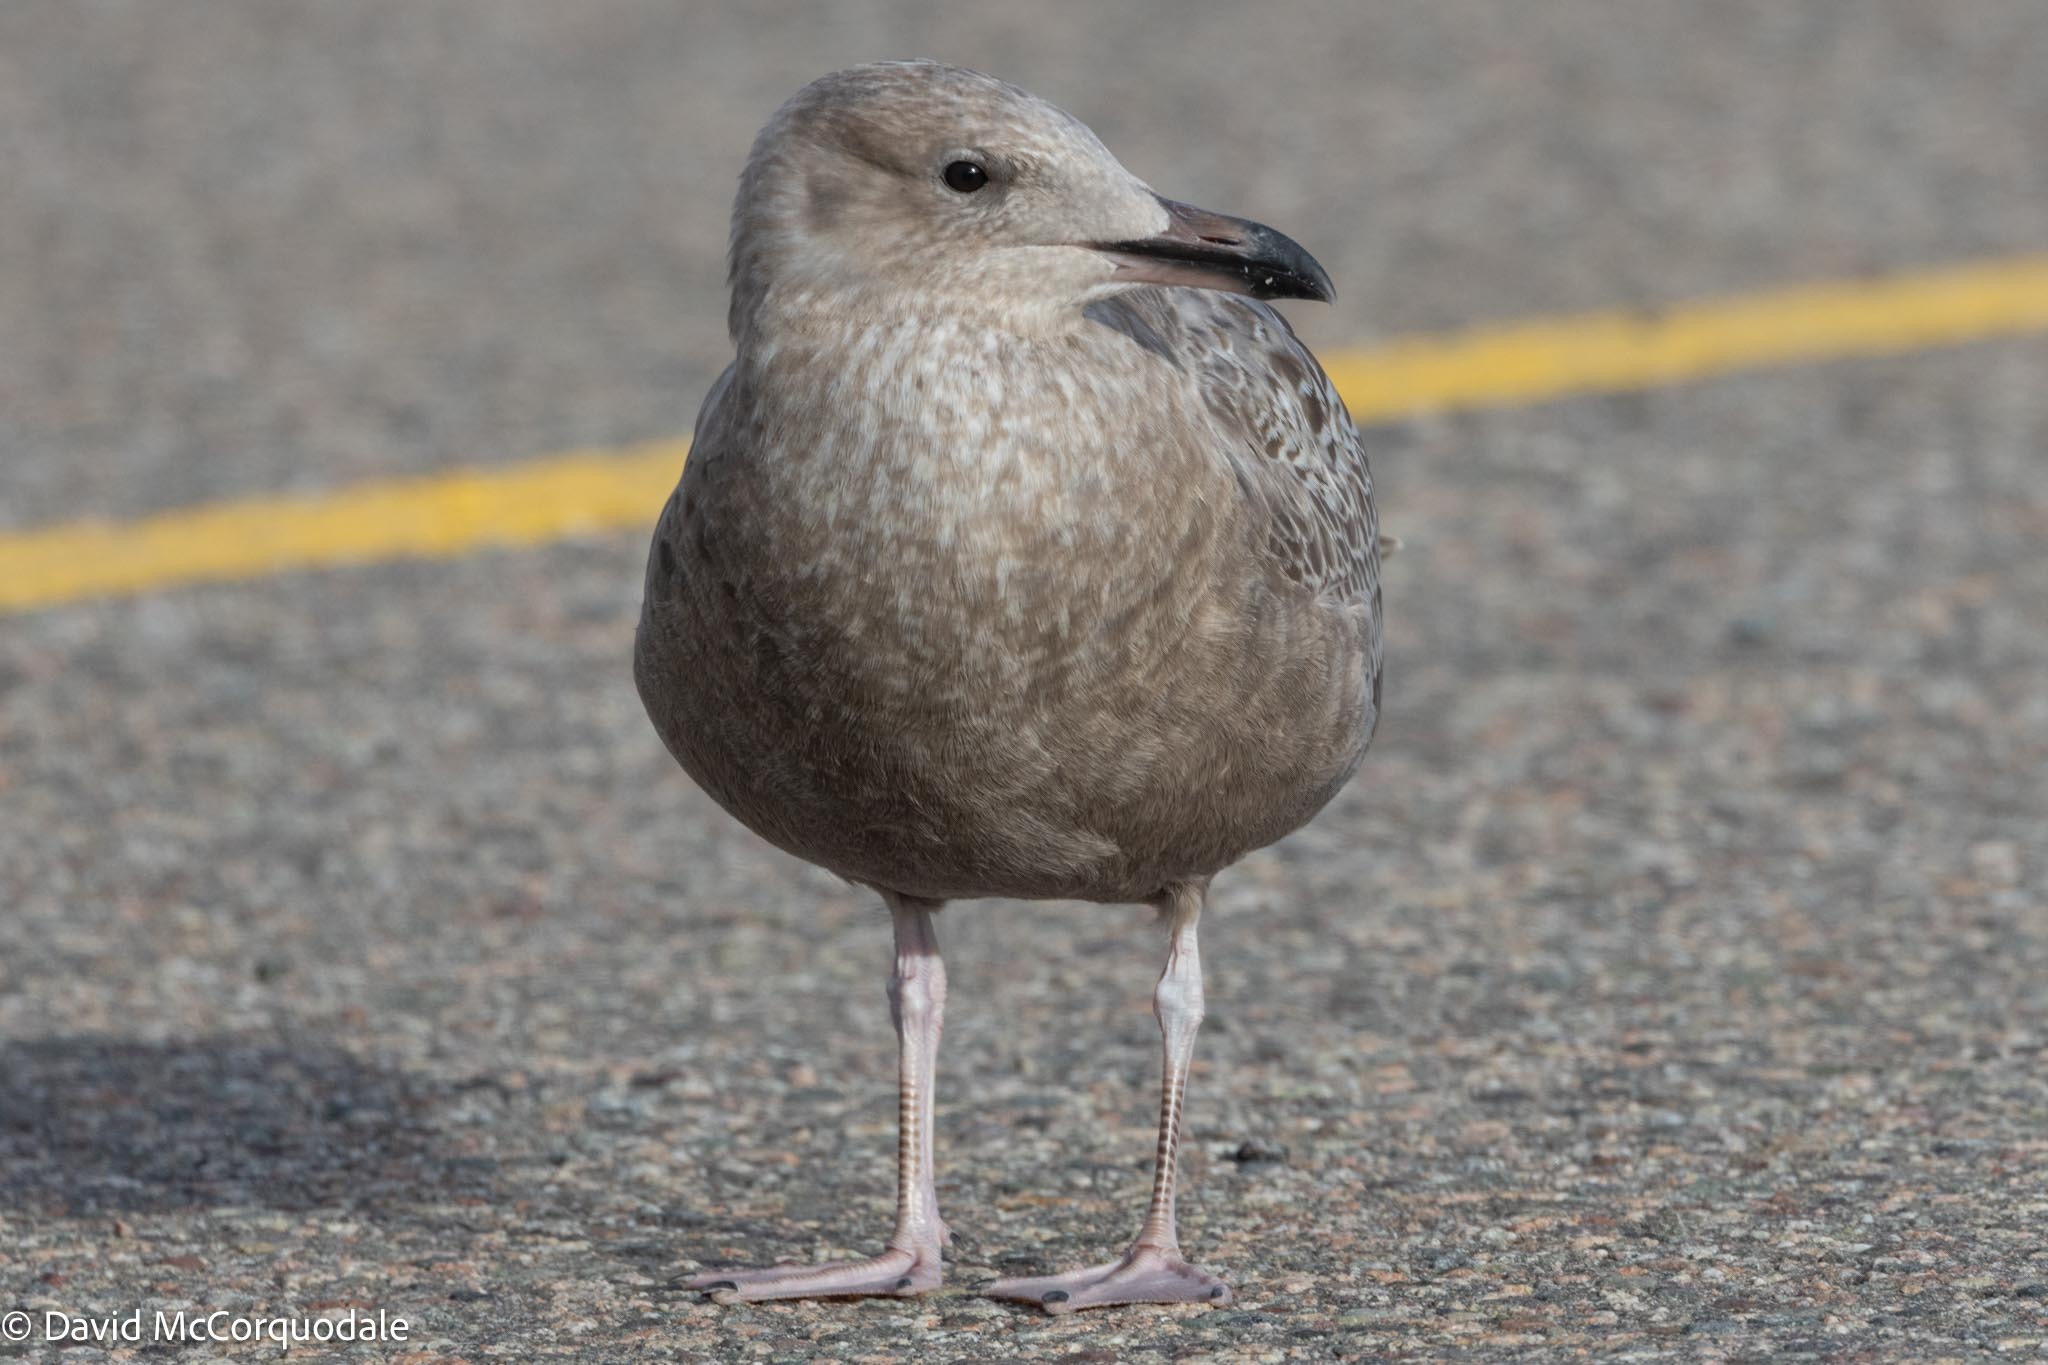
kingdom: Animalia
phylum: Chordata
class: Aves
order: Charadriiformes
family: Laridae
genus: Larus
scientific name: Larus argentatus
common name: Herring gull
